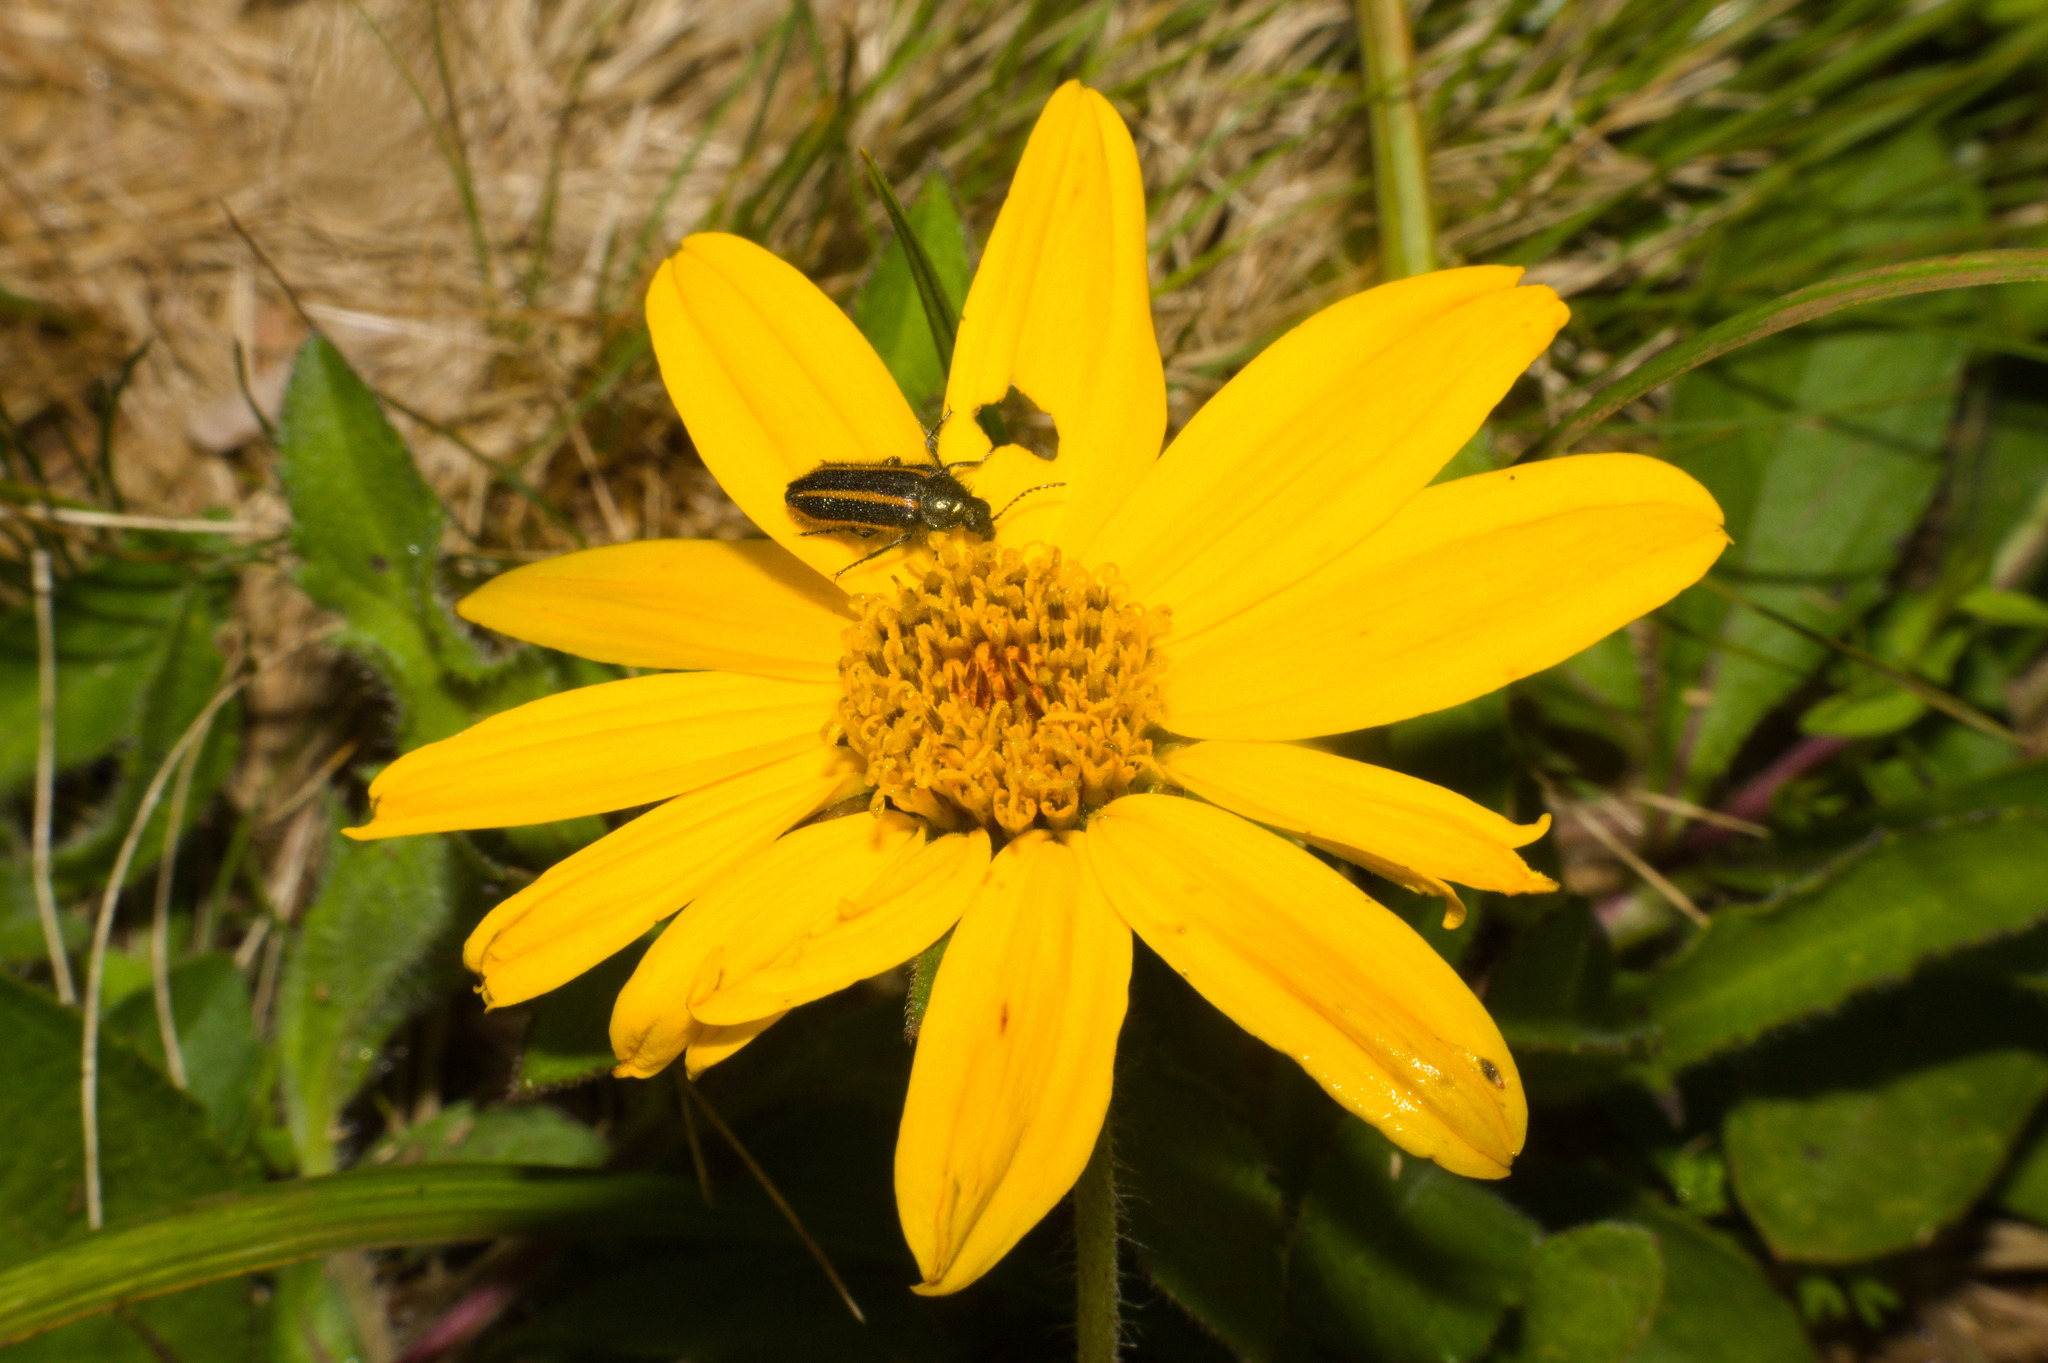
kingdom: Plantae
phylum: Tracheophyta
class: Magnoliopsida
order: Asterales
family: Asteraceae
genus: Wedelia
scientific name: Wedelia montevidensis
